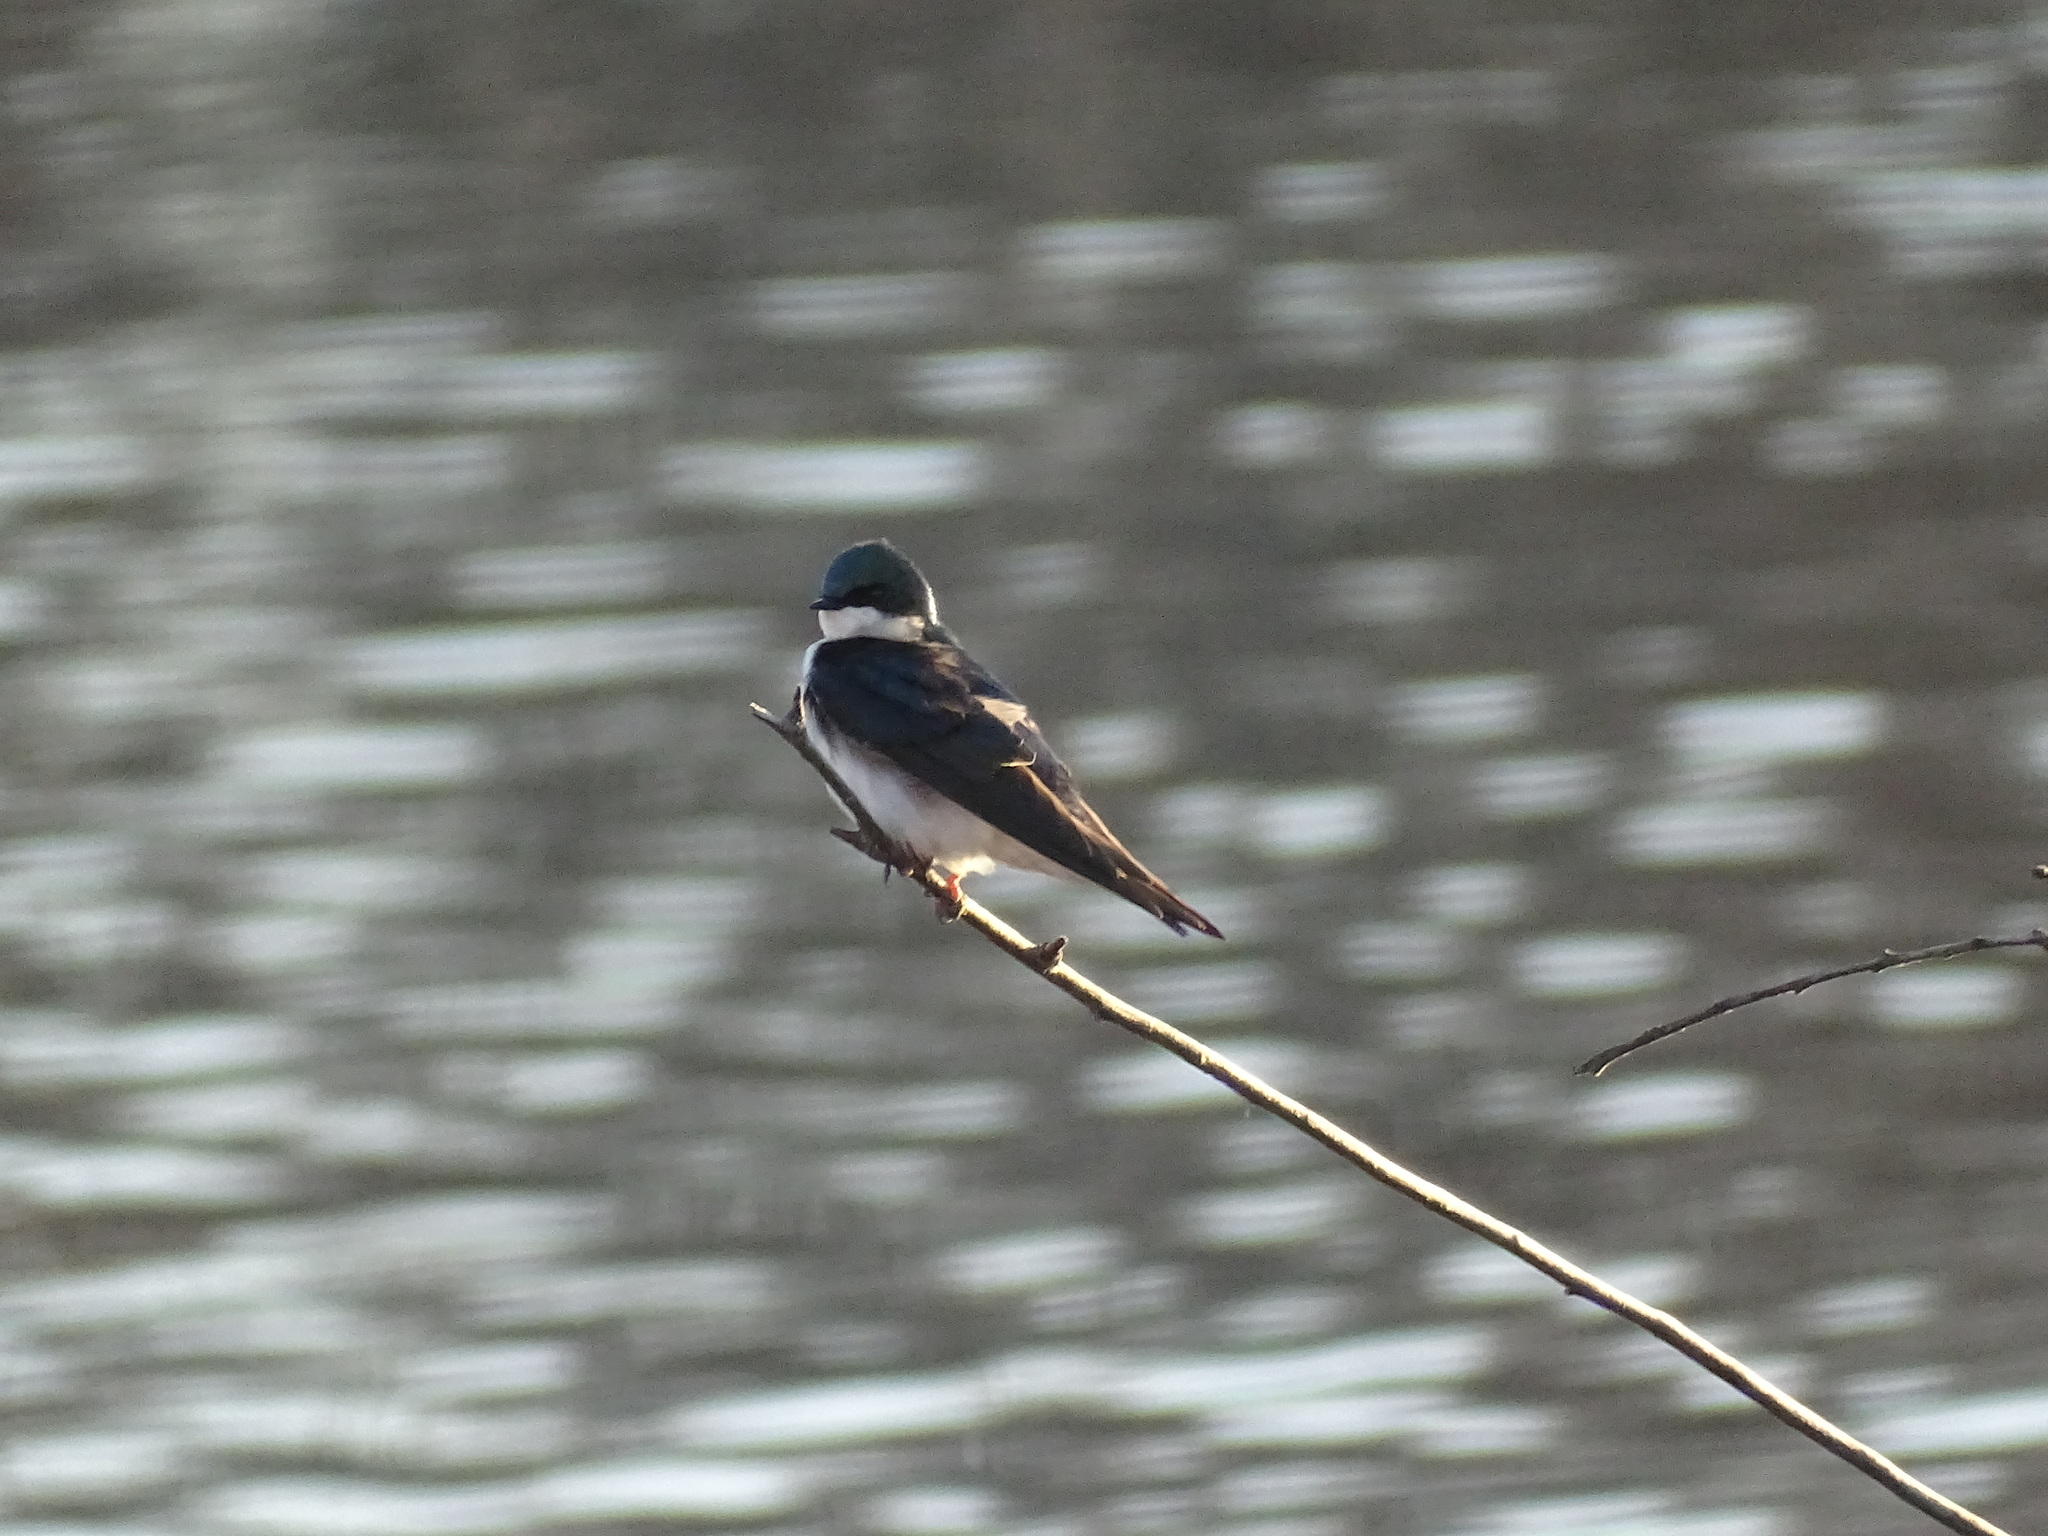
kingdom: Animalia
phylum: Chordata
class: Aves
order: Passeriformes
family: Hirundinidae
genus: Tachycineta
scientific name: Tachycineta bicolor
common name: Tree swallow
